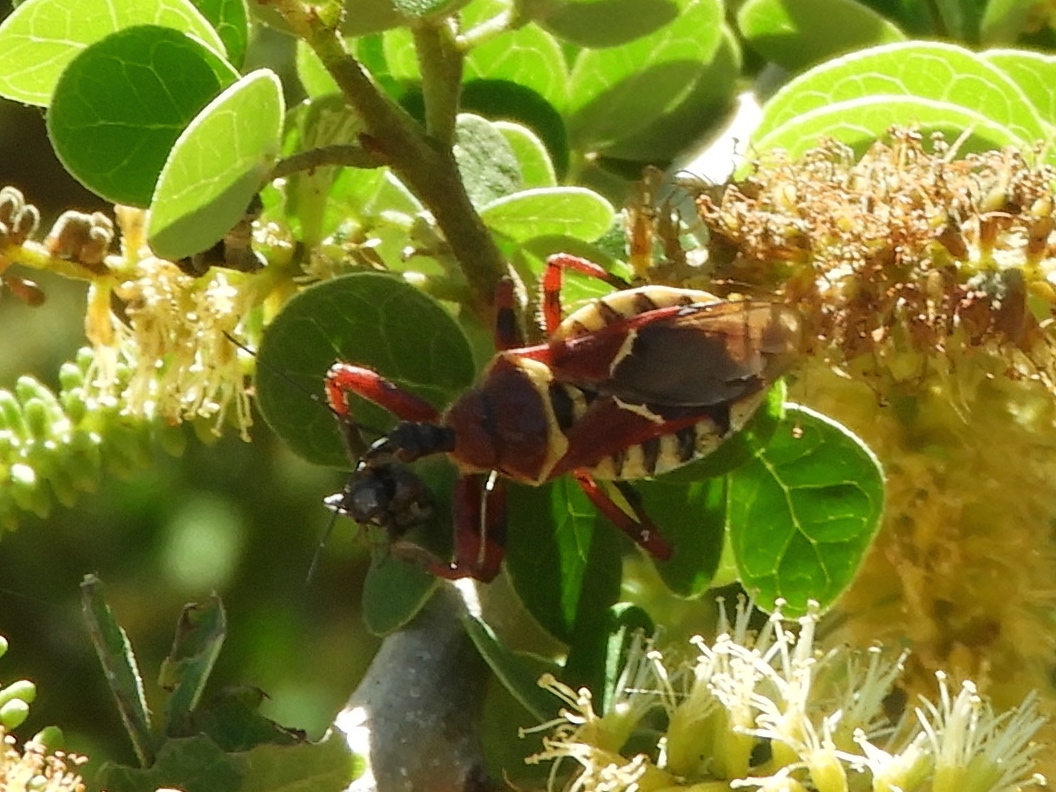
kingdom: Animalia
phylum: Arthropoda
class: Insecta
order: Hemiptera
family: Reduviidae
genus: Apiomerus
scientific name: Apiomerus flaviventris
